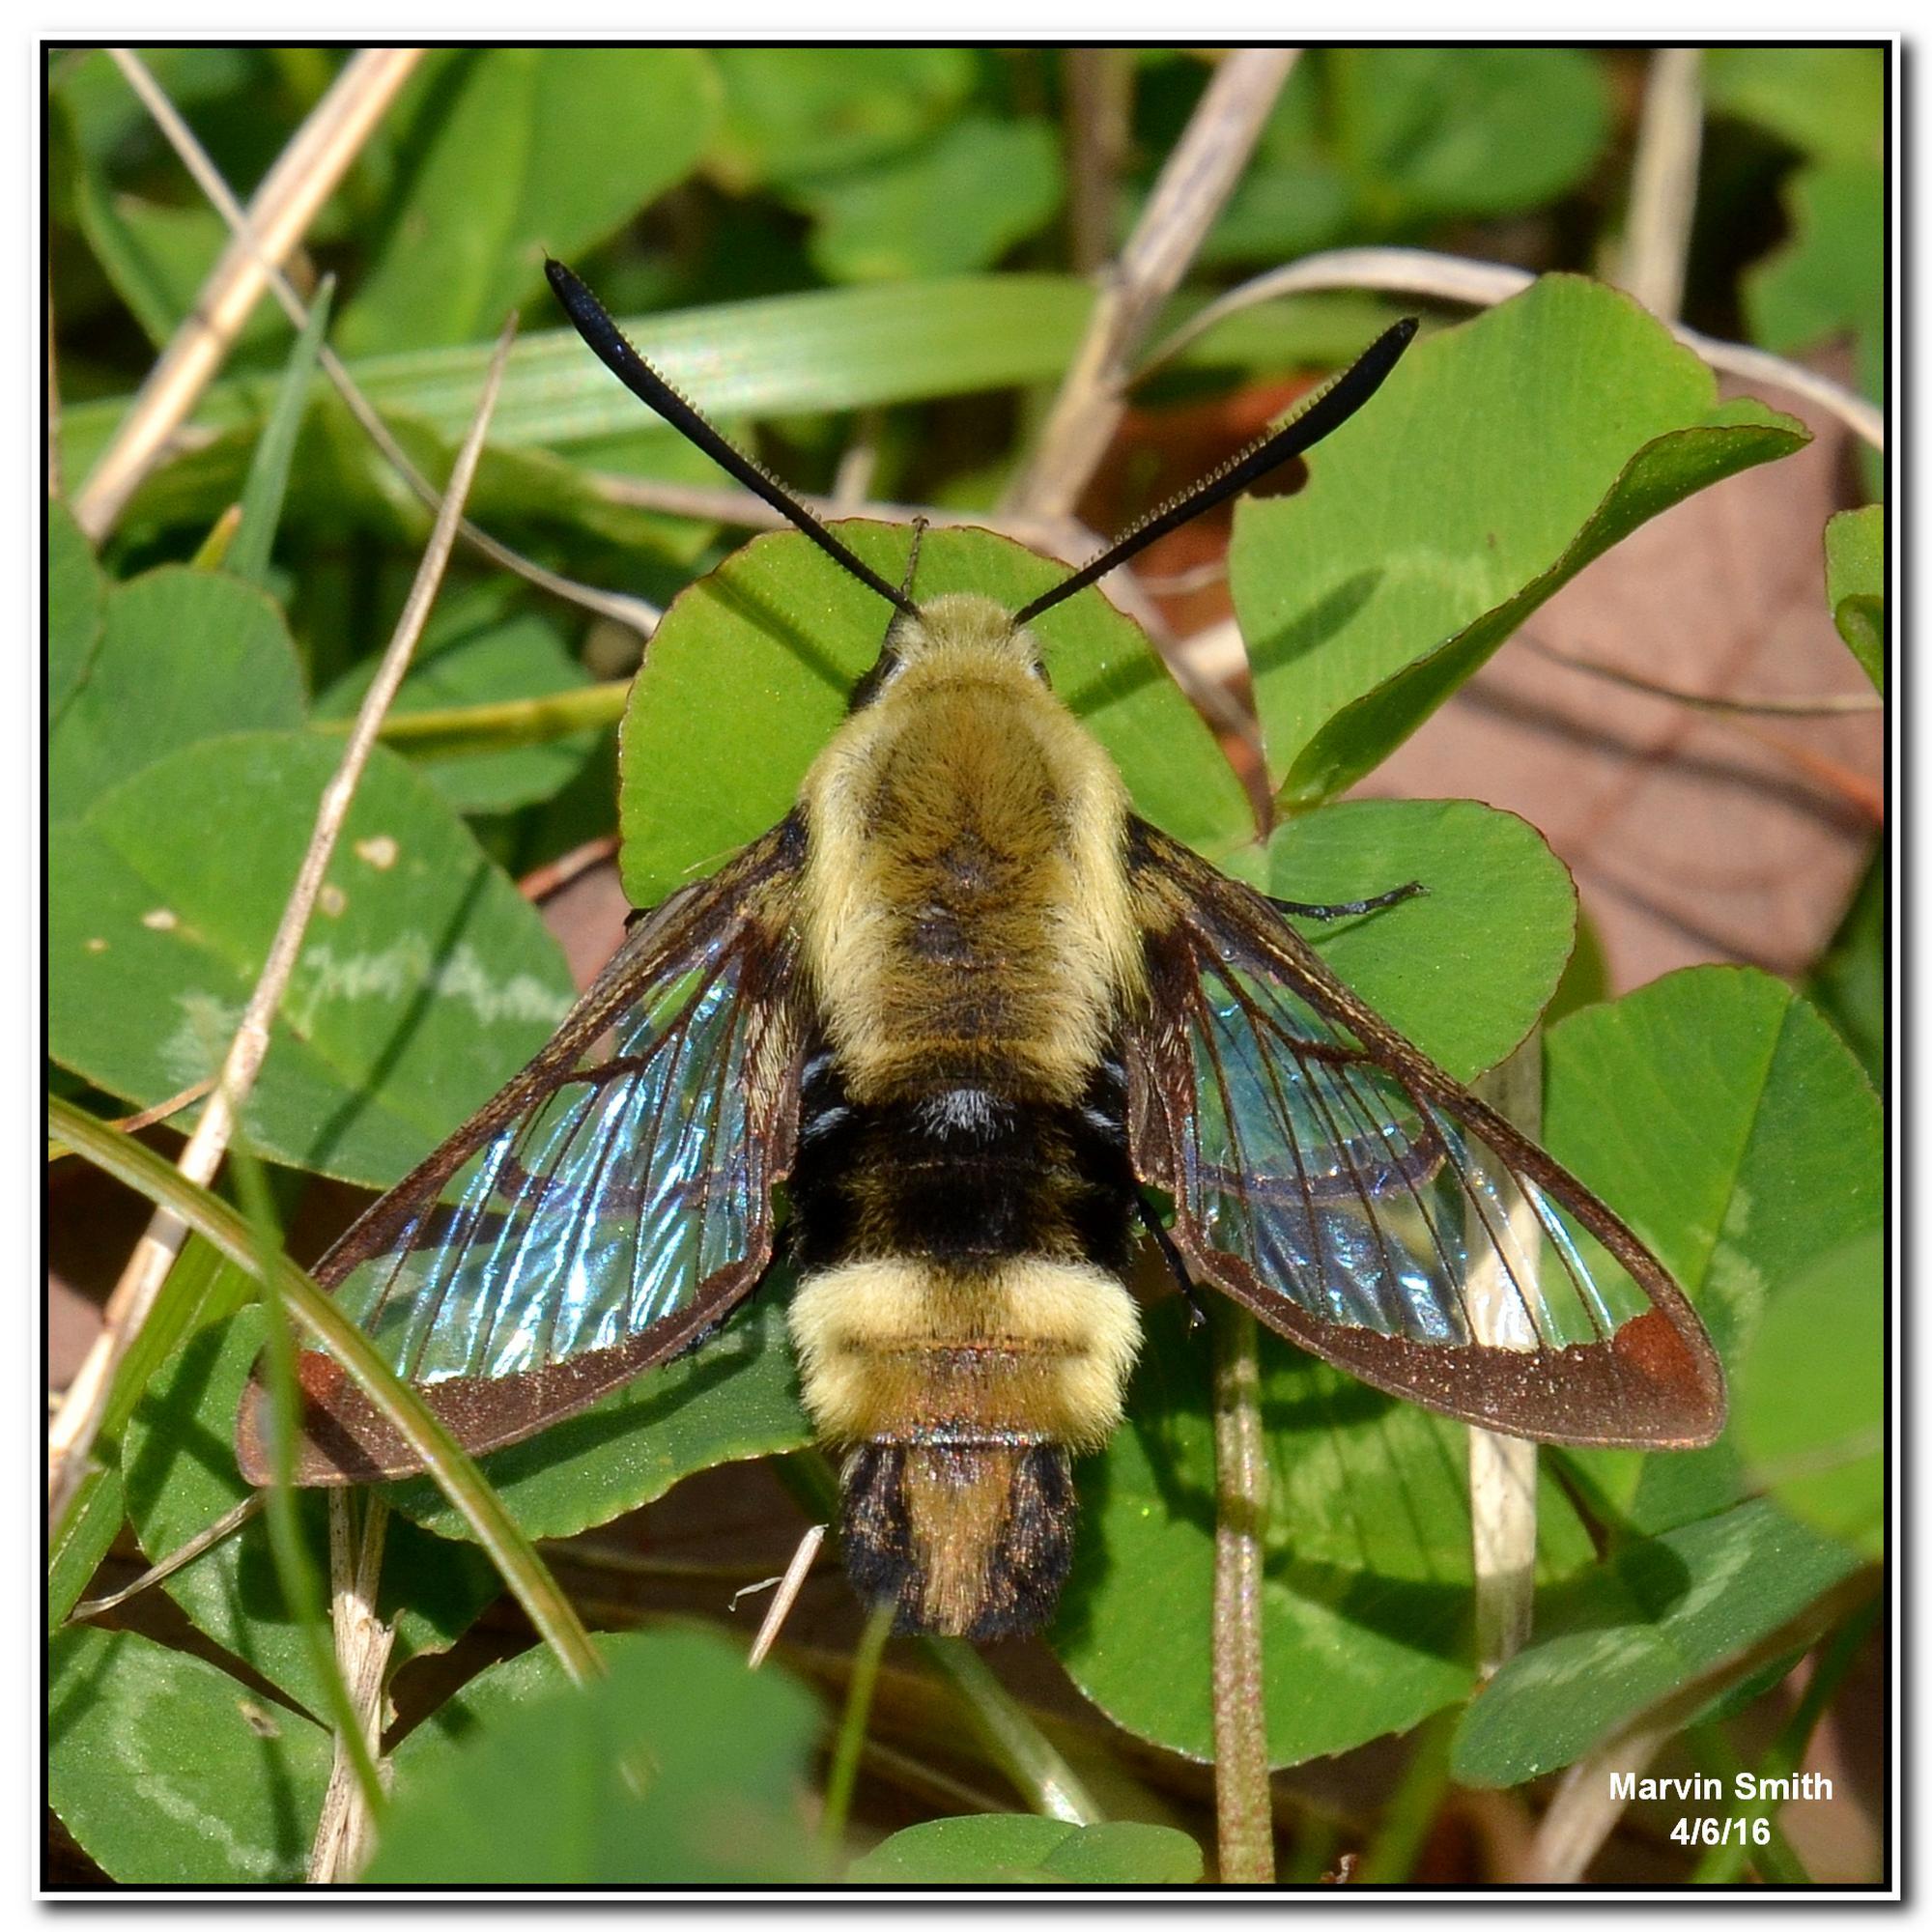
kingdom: Animalia
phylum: Arthropoda
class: Insecta
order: Lepidoptera
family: Sphingidae
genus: Hemaris
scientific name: Hemaris diffinis
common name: Bumblebee moth
